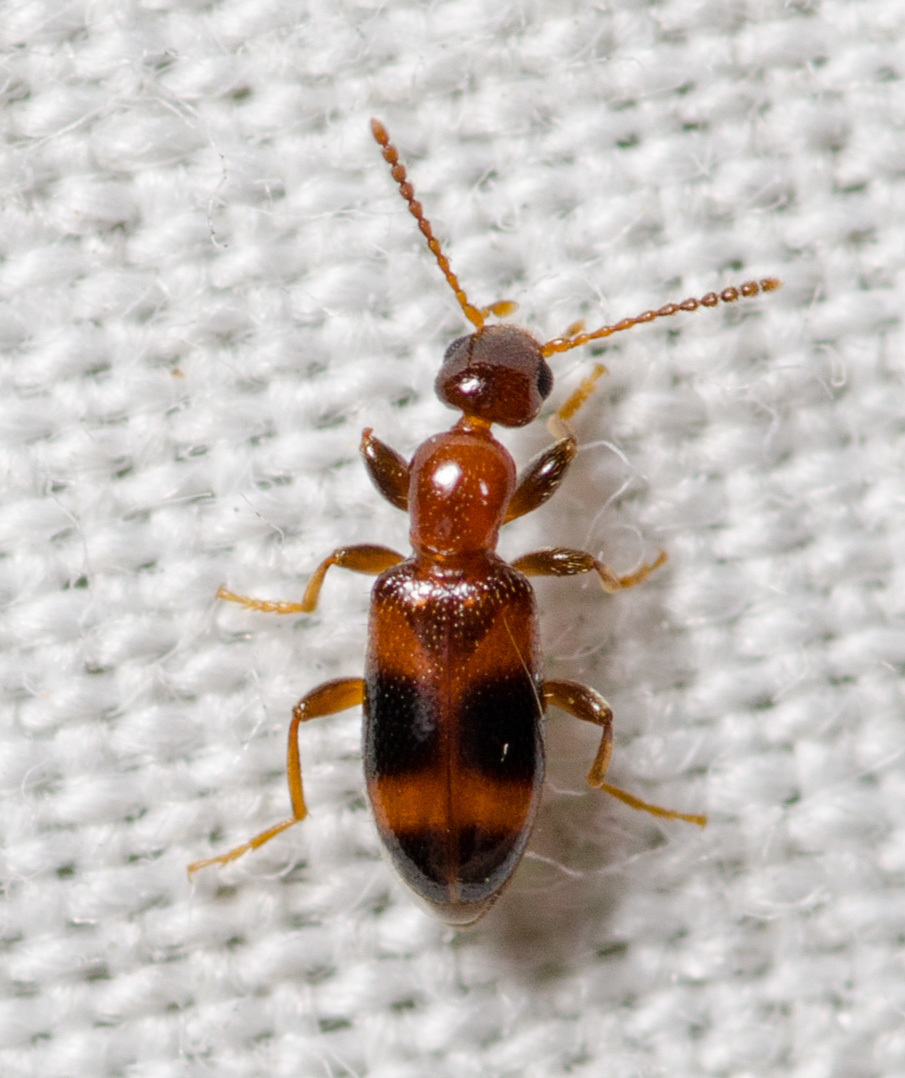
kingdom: Animalia
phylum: Arthropoda
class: Insecta
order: Coleoptera
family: Anthicidae
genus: Vacusus
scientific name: Vacusus vicinus
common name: Antlike flower beetle
